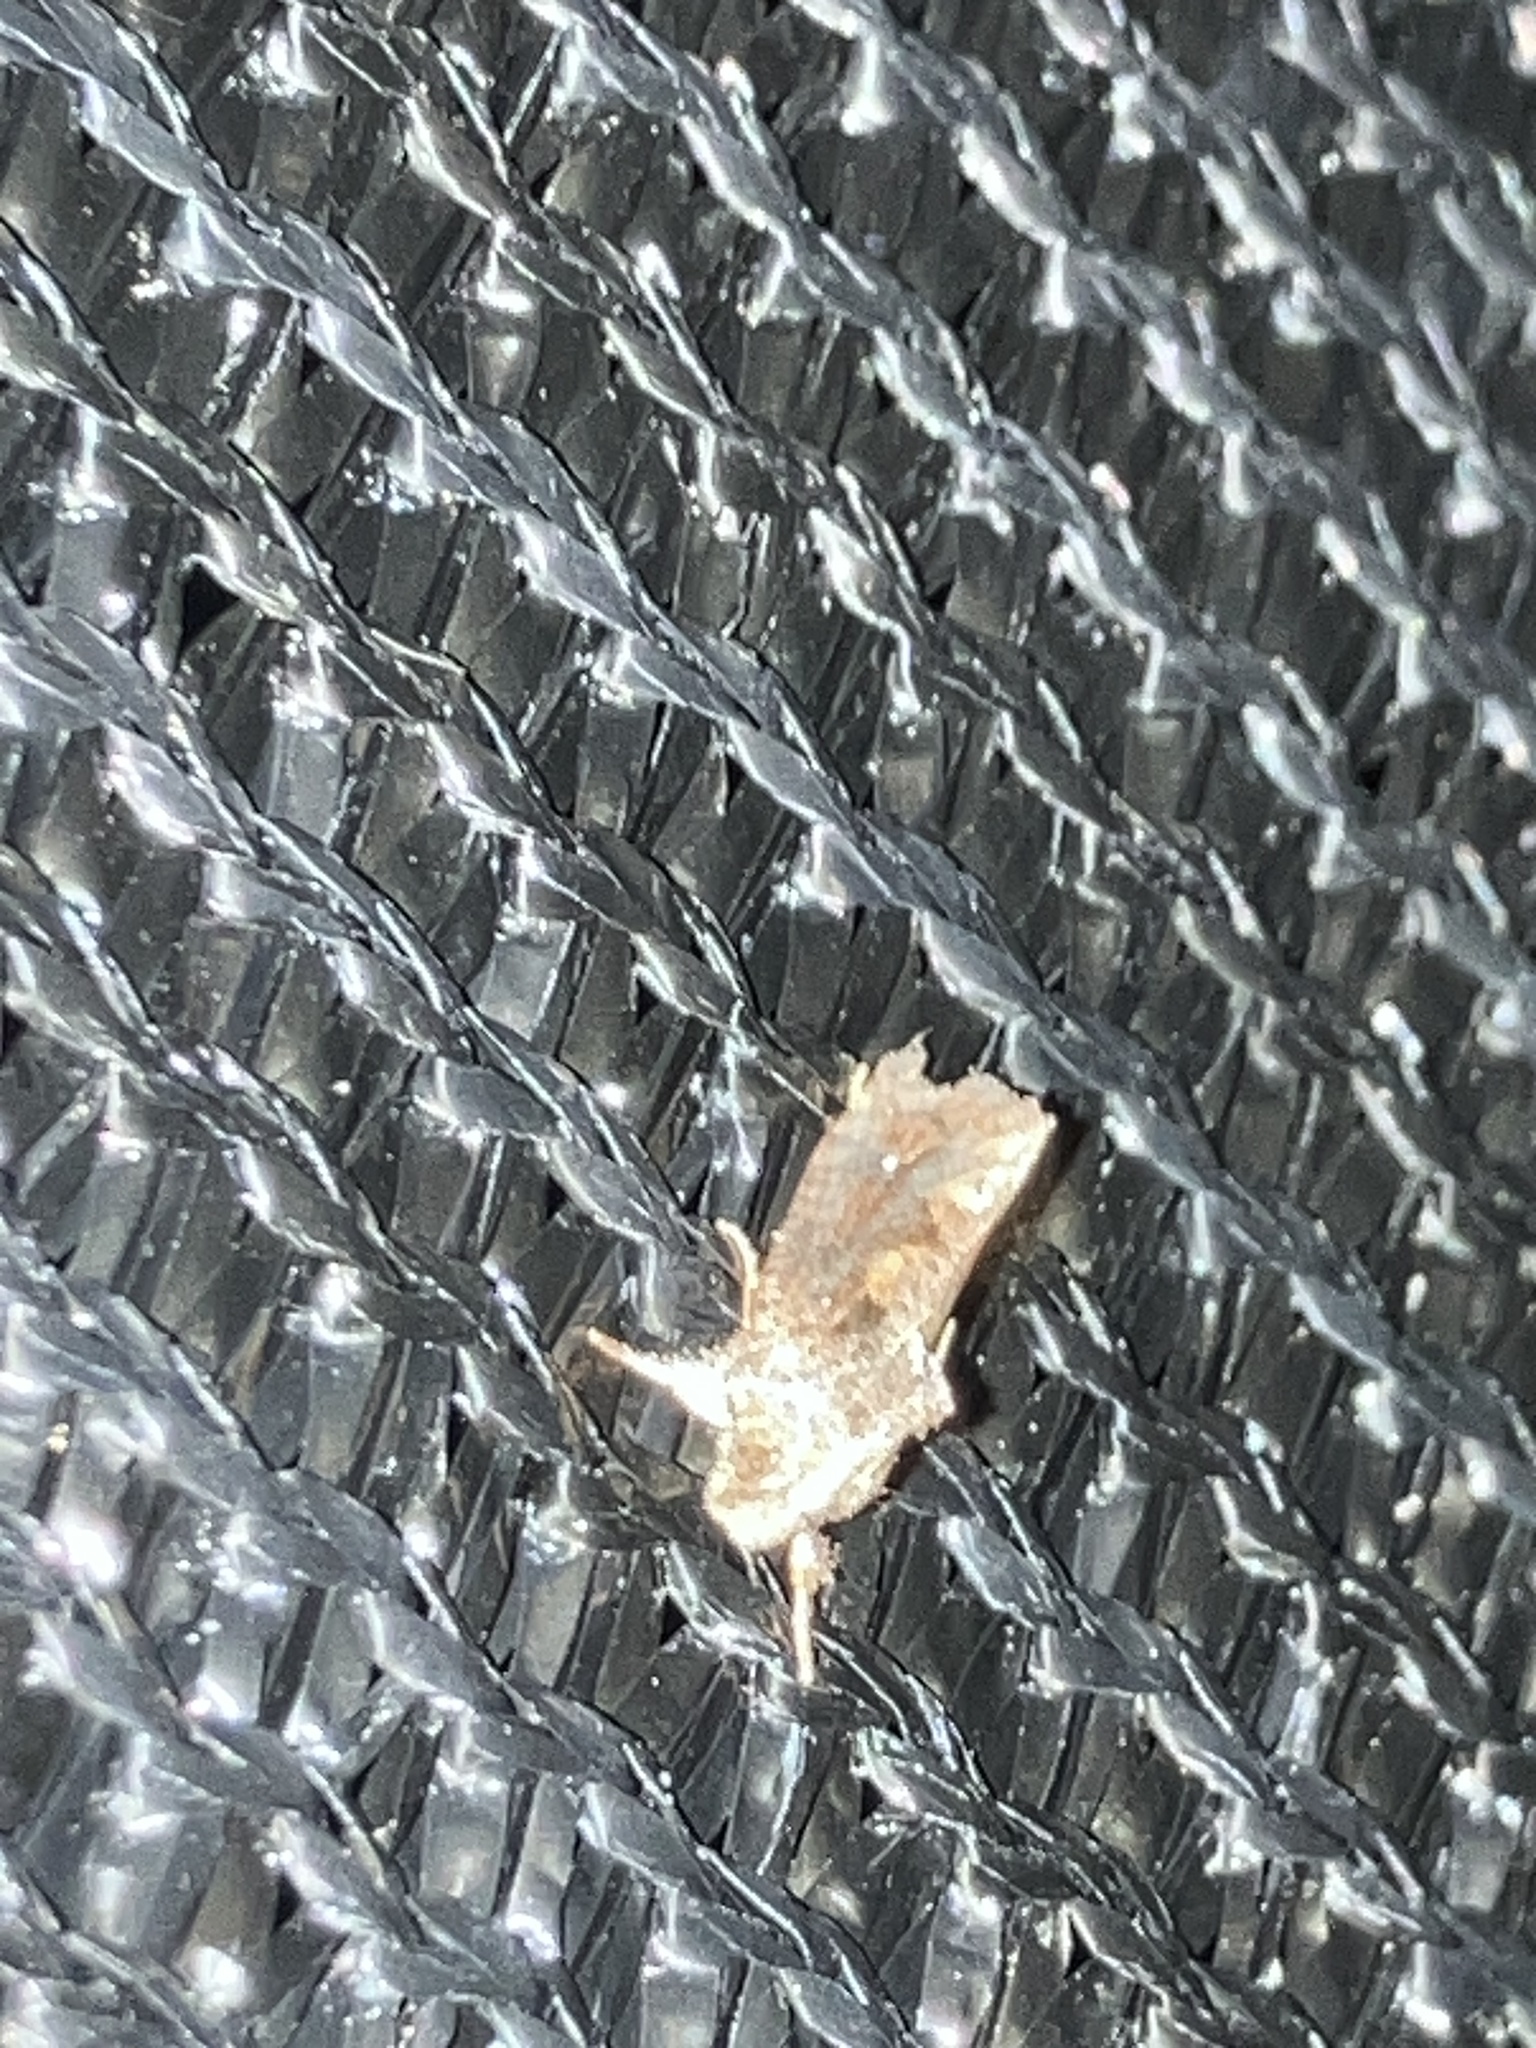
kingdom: Animalia
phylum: Arthropoda
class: Insecta
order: Lepidoptera
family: Tineidae
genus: Acrolophus
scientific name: Acrolophus walsinghami
